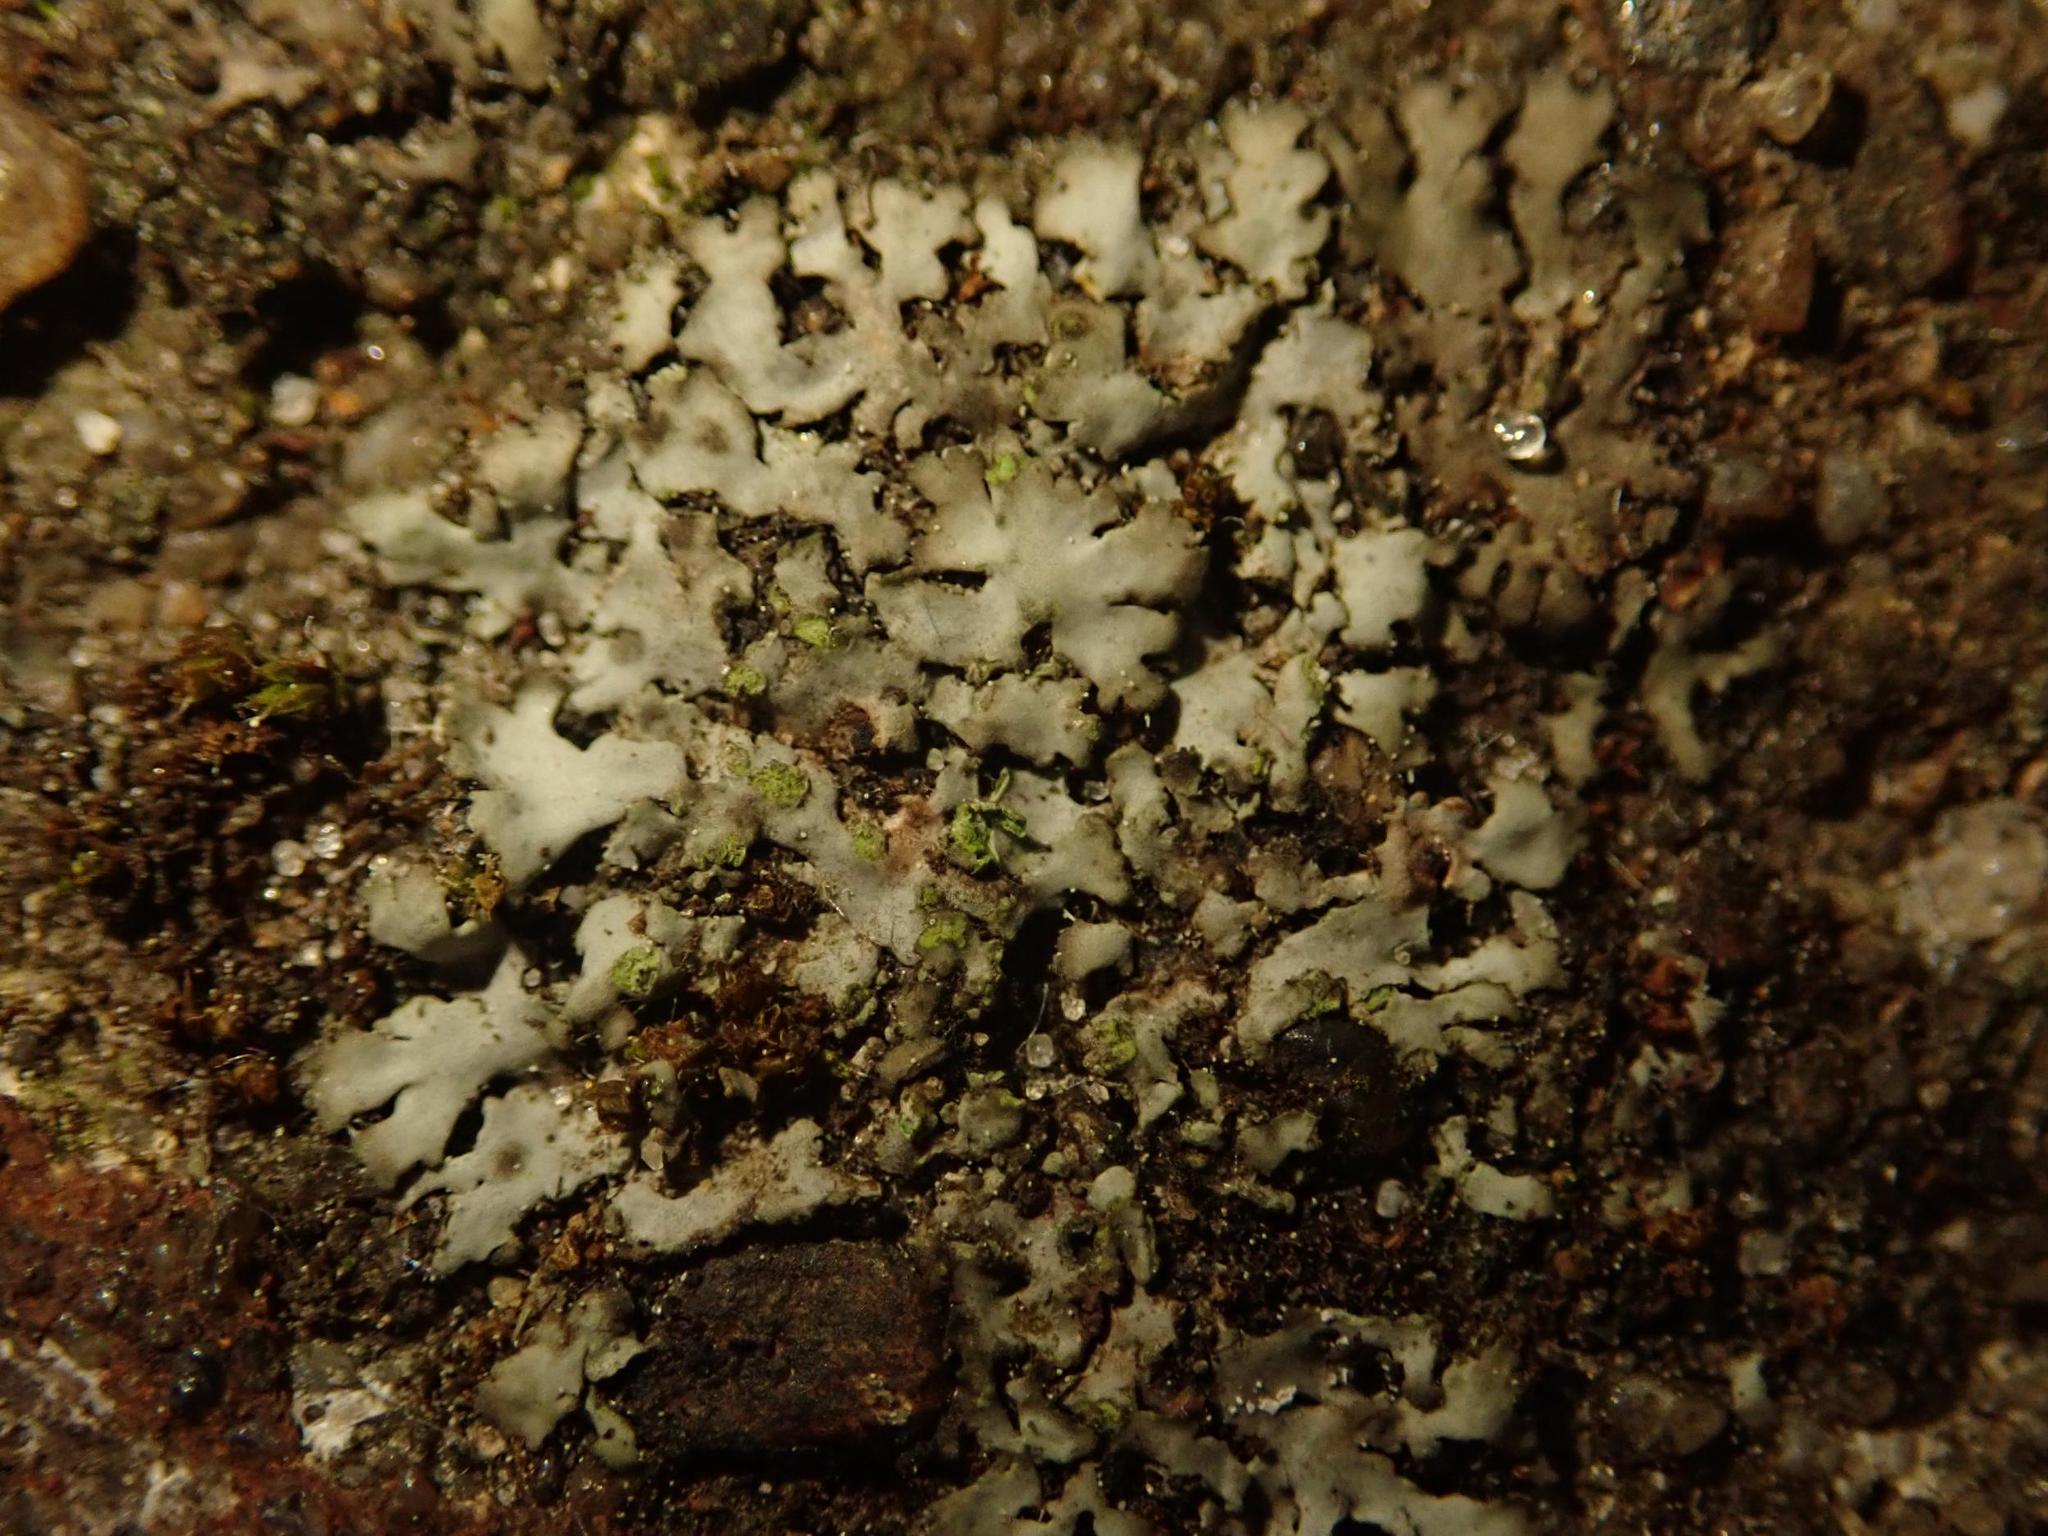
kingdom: Fungi
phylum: Ascomycota
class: Lecanoromycetes
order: Caliciales
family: Physciaceae
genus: Phaeophyscia
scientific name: Phaeophyscia orbicularis
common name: Mealy shadow lichen
